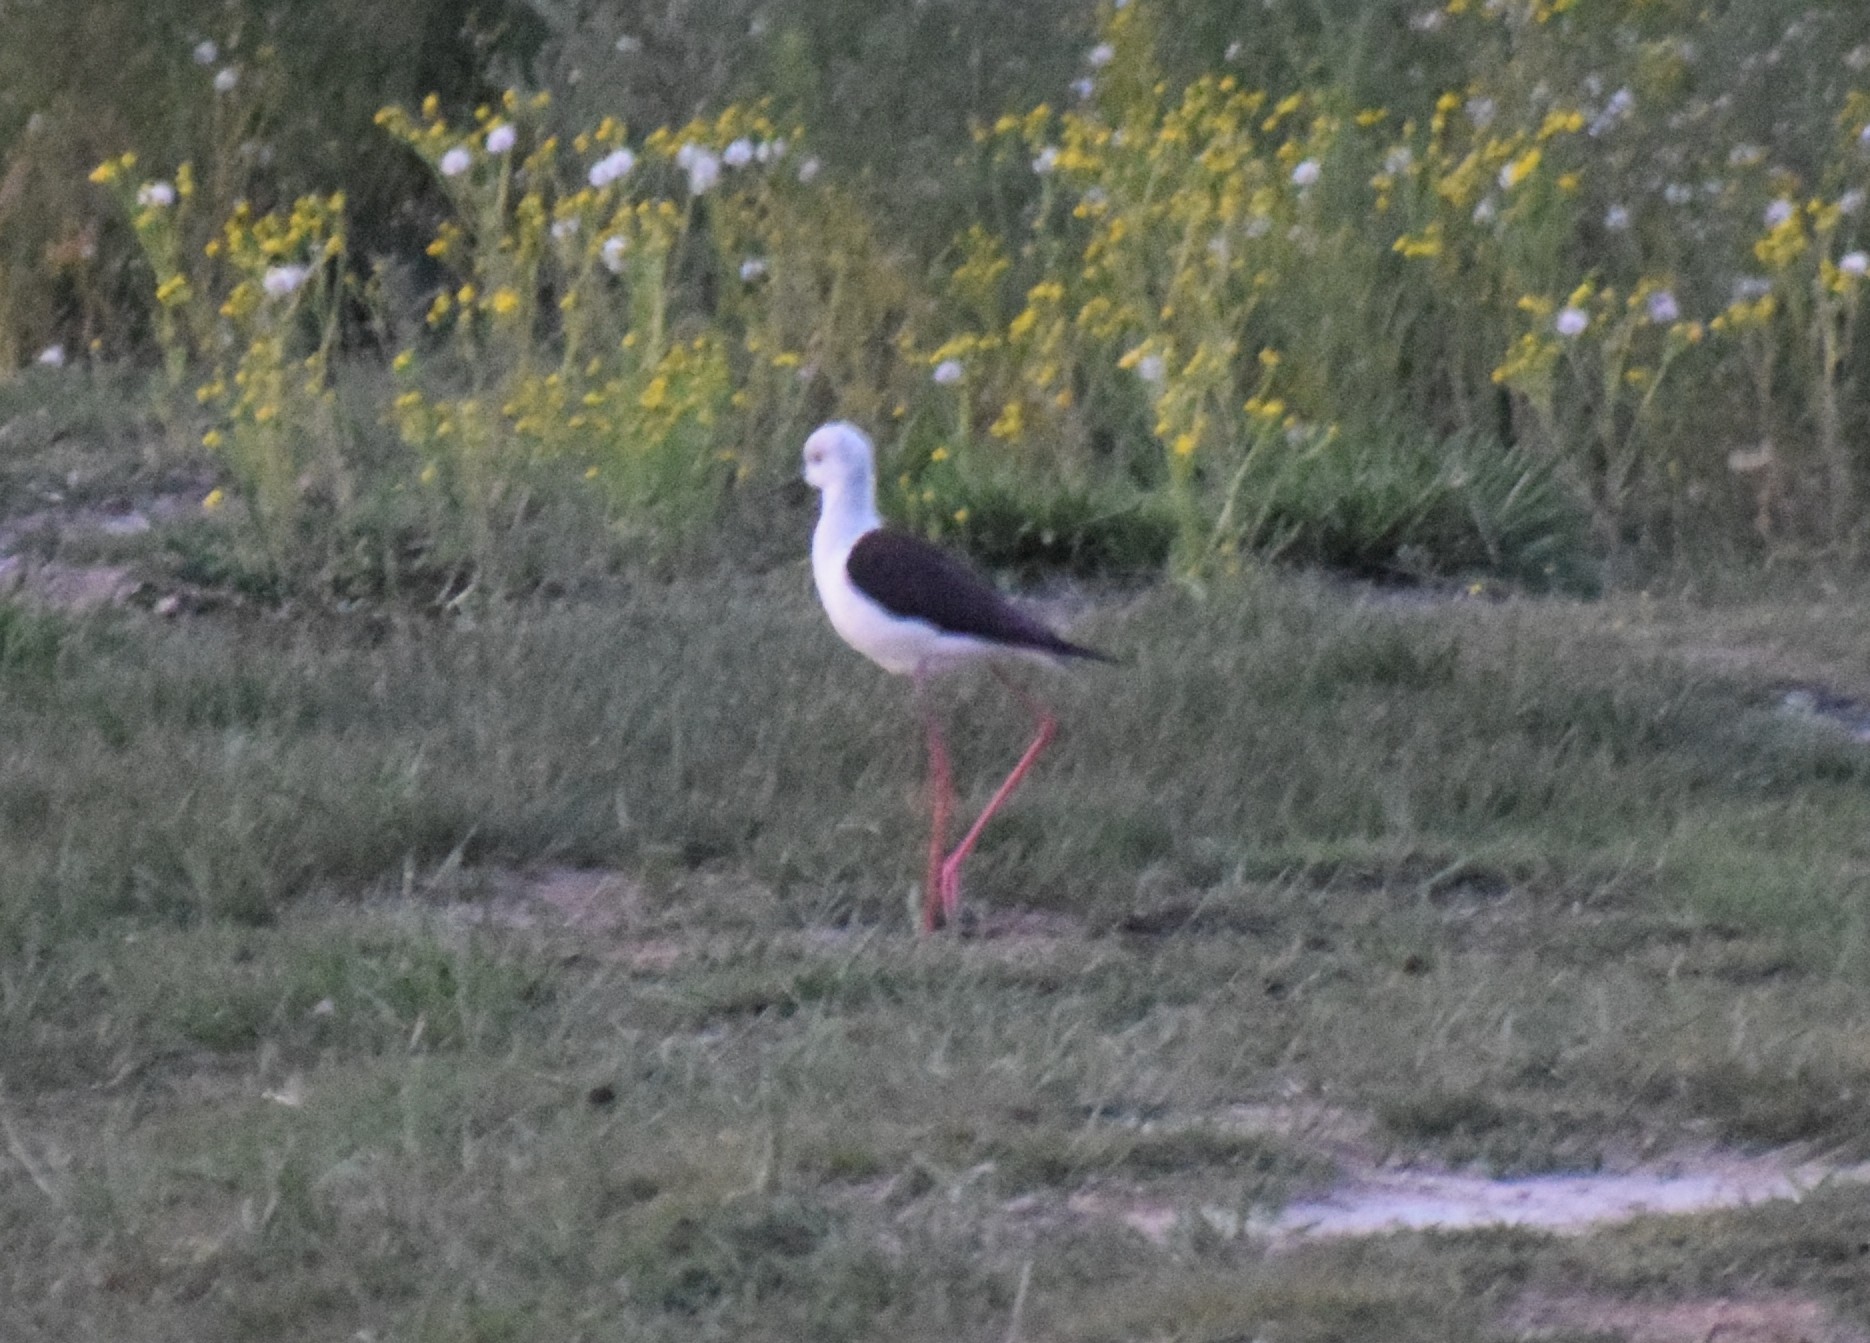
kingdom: Animalia
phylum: Chordata
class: Aves
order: Charadriiformes
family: Recurvirostridae
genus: Himantopus
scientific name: Himantopus himantopus
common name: Black-winged stilt
